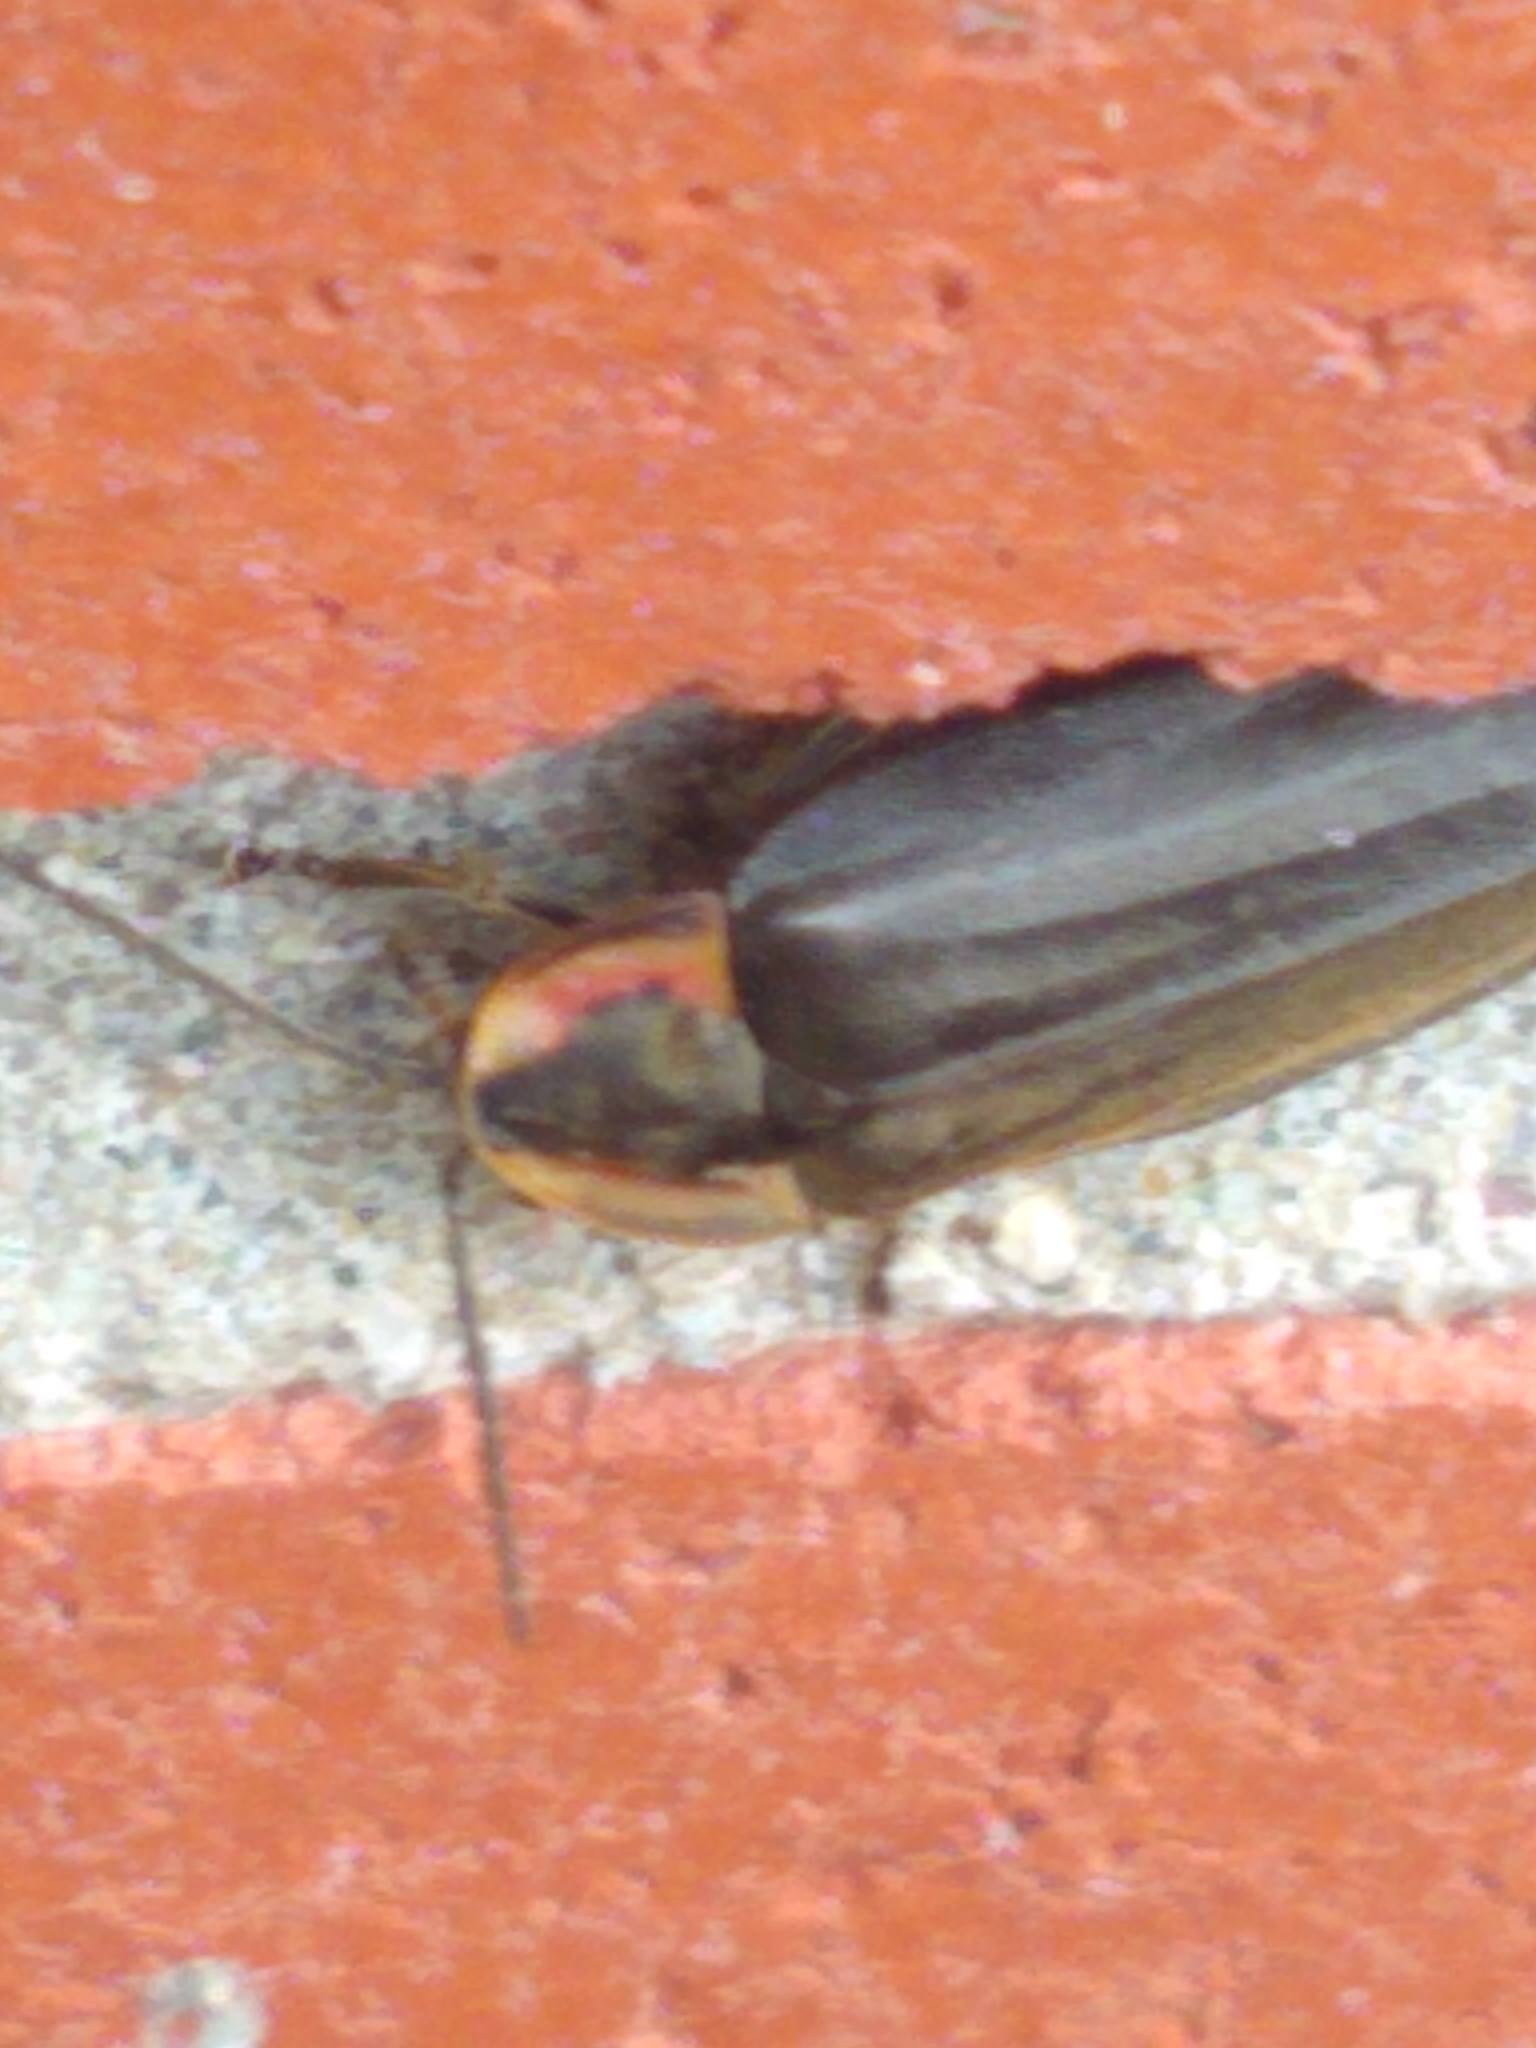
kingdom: Animalia
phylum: Arthropoda
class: Insecta
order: Coleoptera
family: Lampyridae
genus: Photinus
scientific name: Photinus corrusca
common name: Winter firefly
